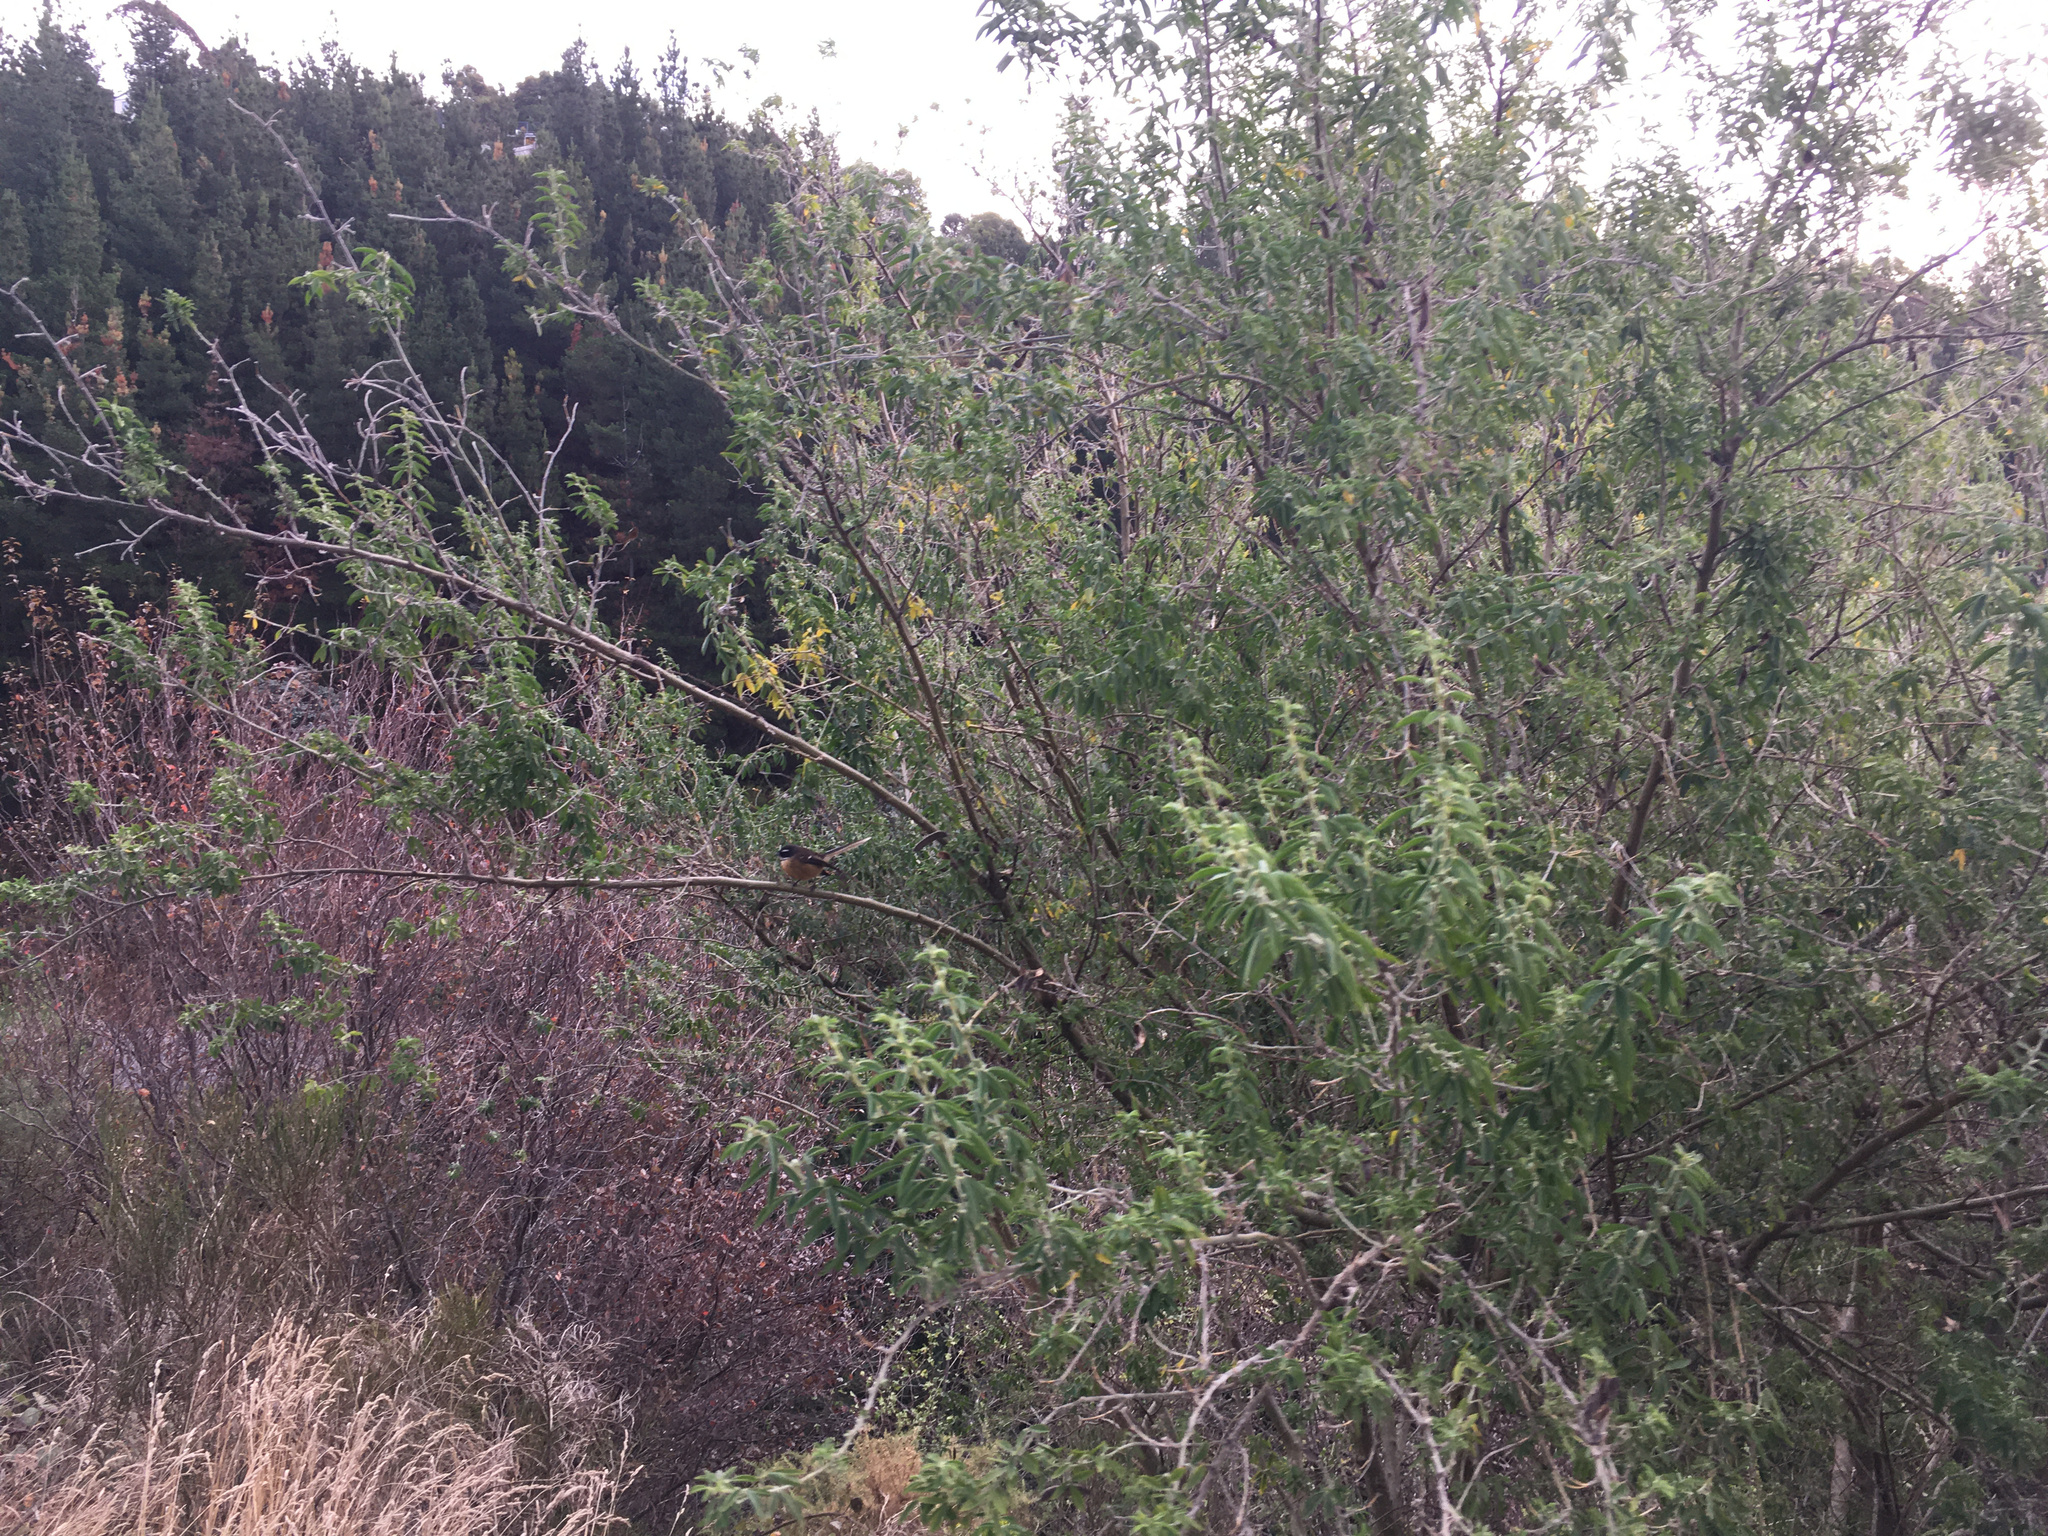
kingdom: Plantae
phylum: Tracheophyta
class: Magnoliopsida
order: Fabales
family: Fabaceae
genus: Chamaecytisus
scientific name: Chamaecytisus prolifer
